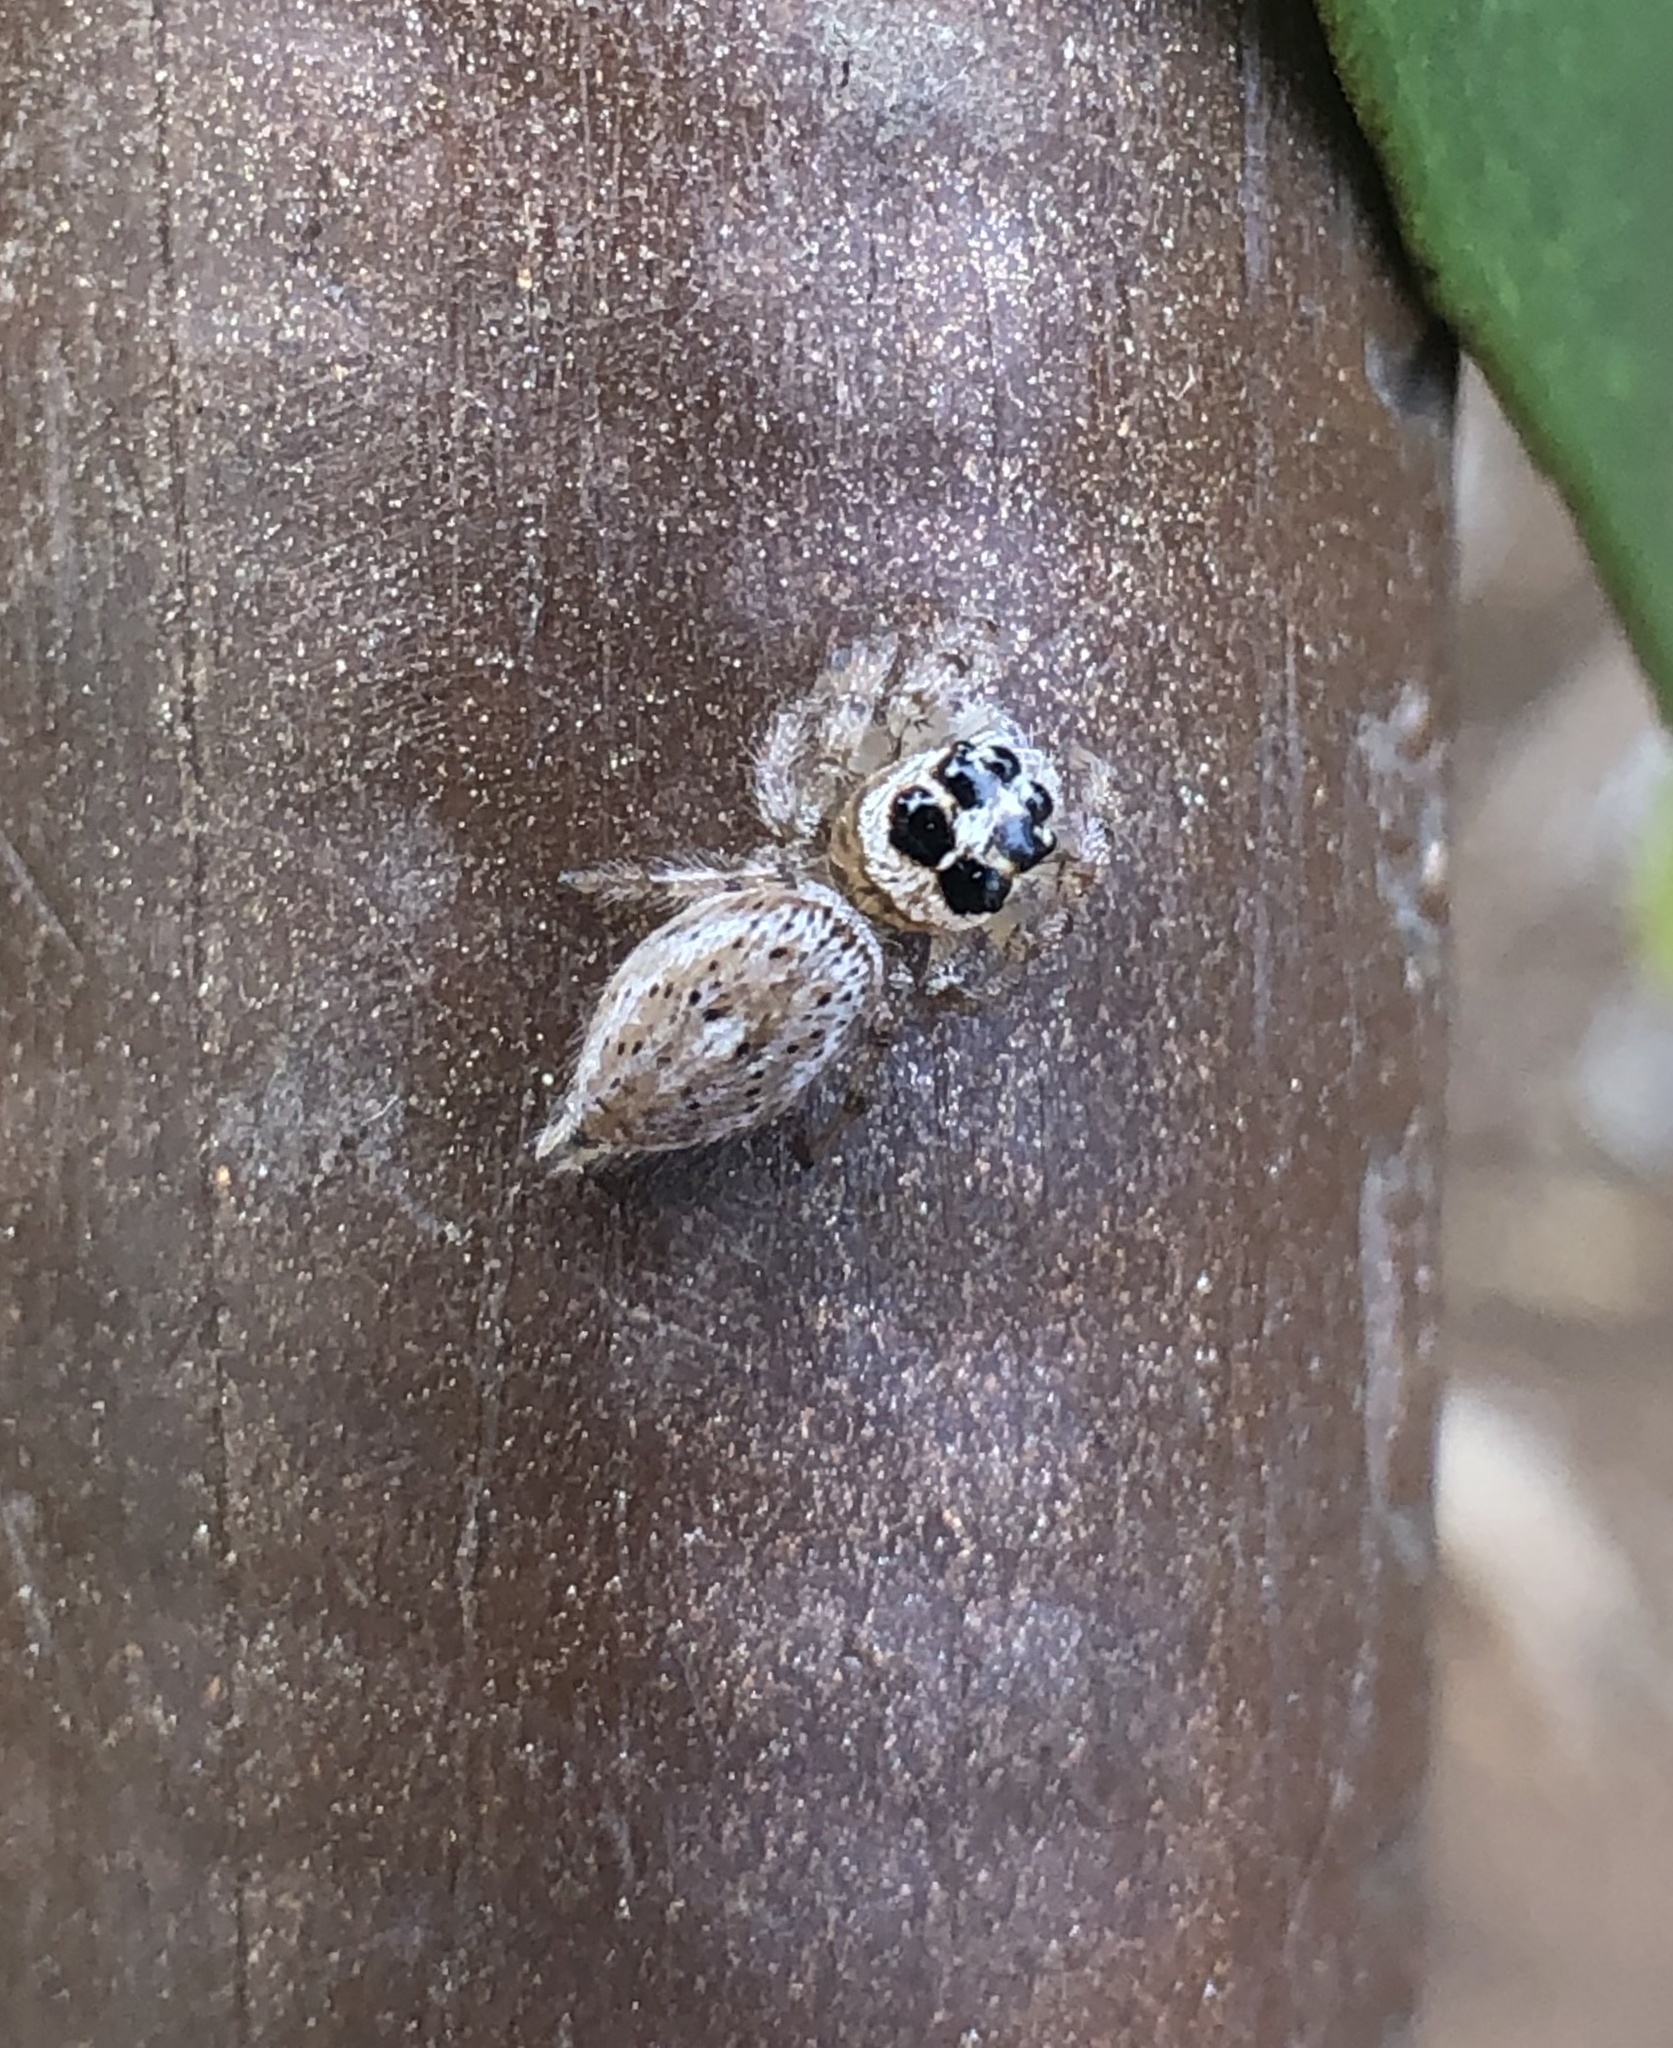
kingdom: Animalia
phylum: Arthropoda
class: Arachnida
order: Araneae
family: Salticidae
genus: Colonus
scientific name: Colonus hesperus
